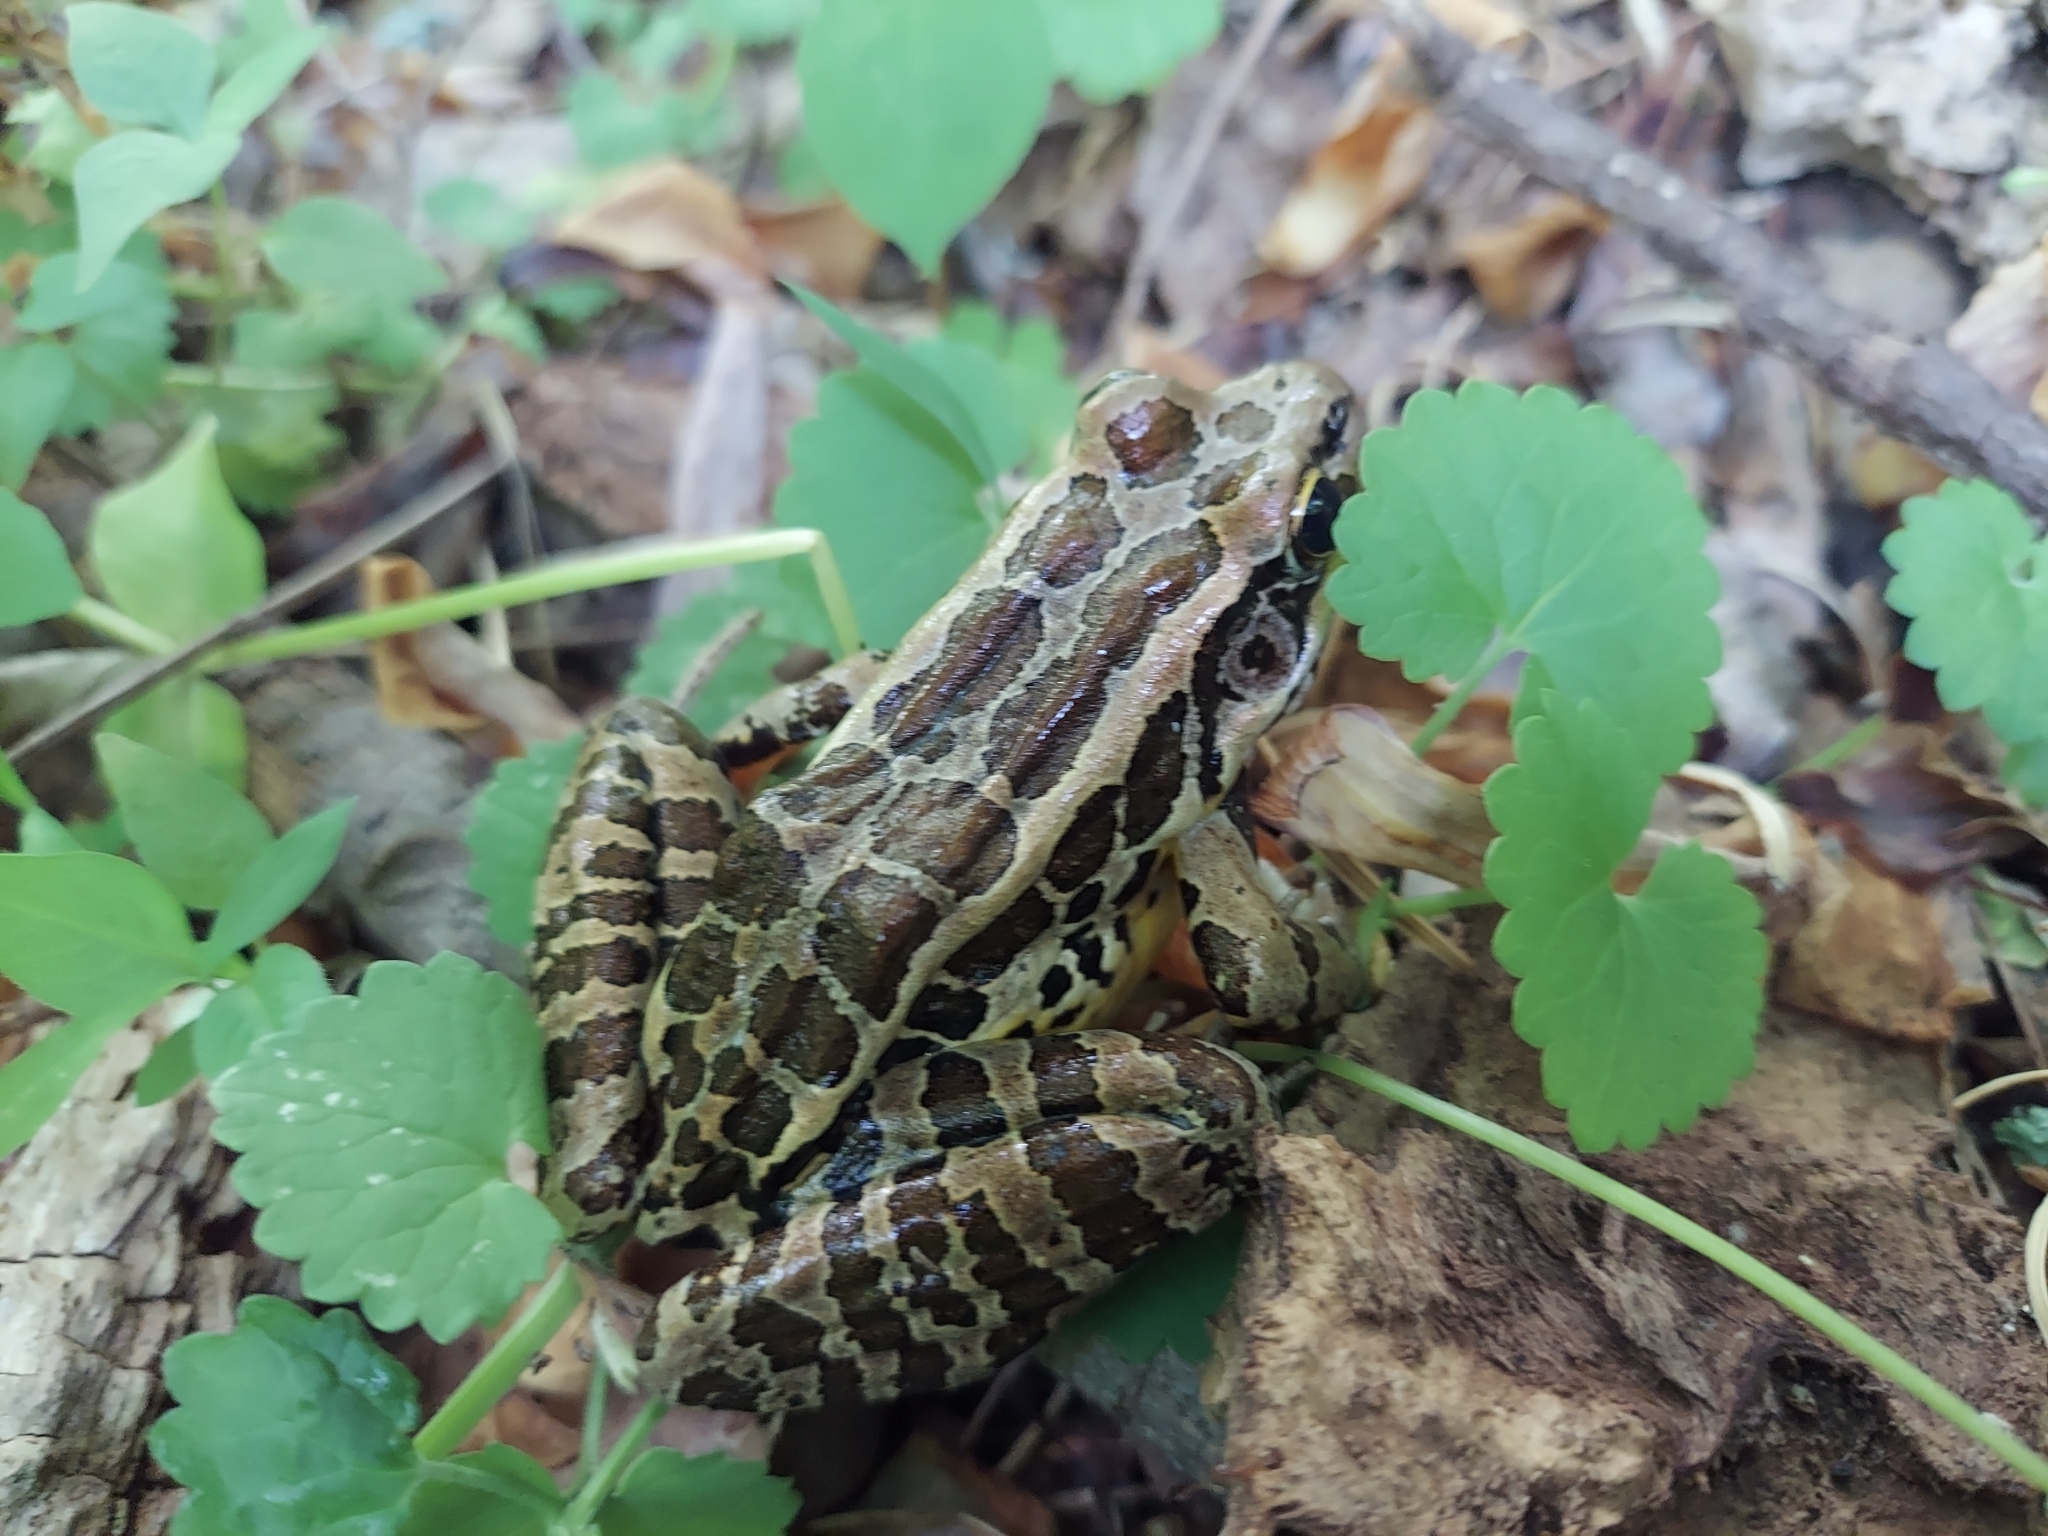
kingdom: Animalia
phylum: Chordata
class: Amphibia
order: Anura
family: Ranidae
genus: Lithobates
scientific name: Lithobates palustris
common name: Pickerel frog
